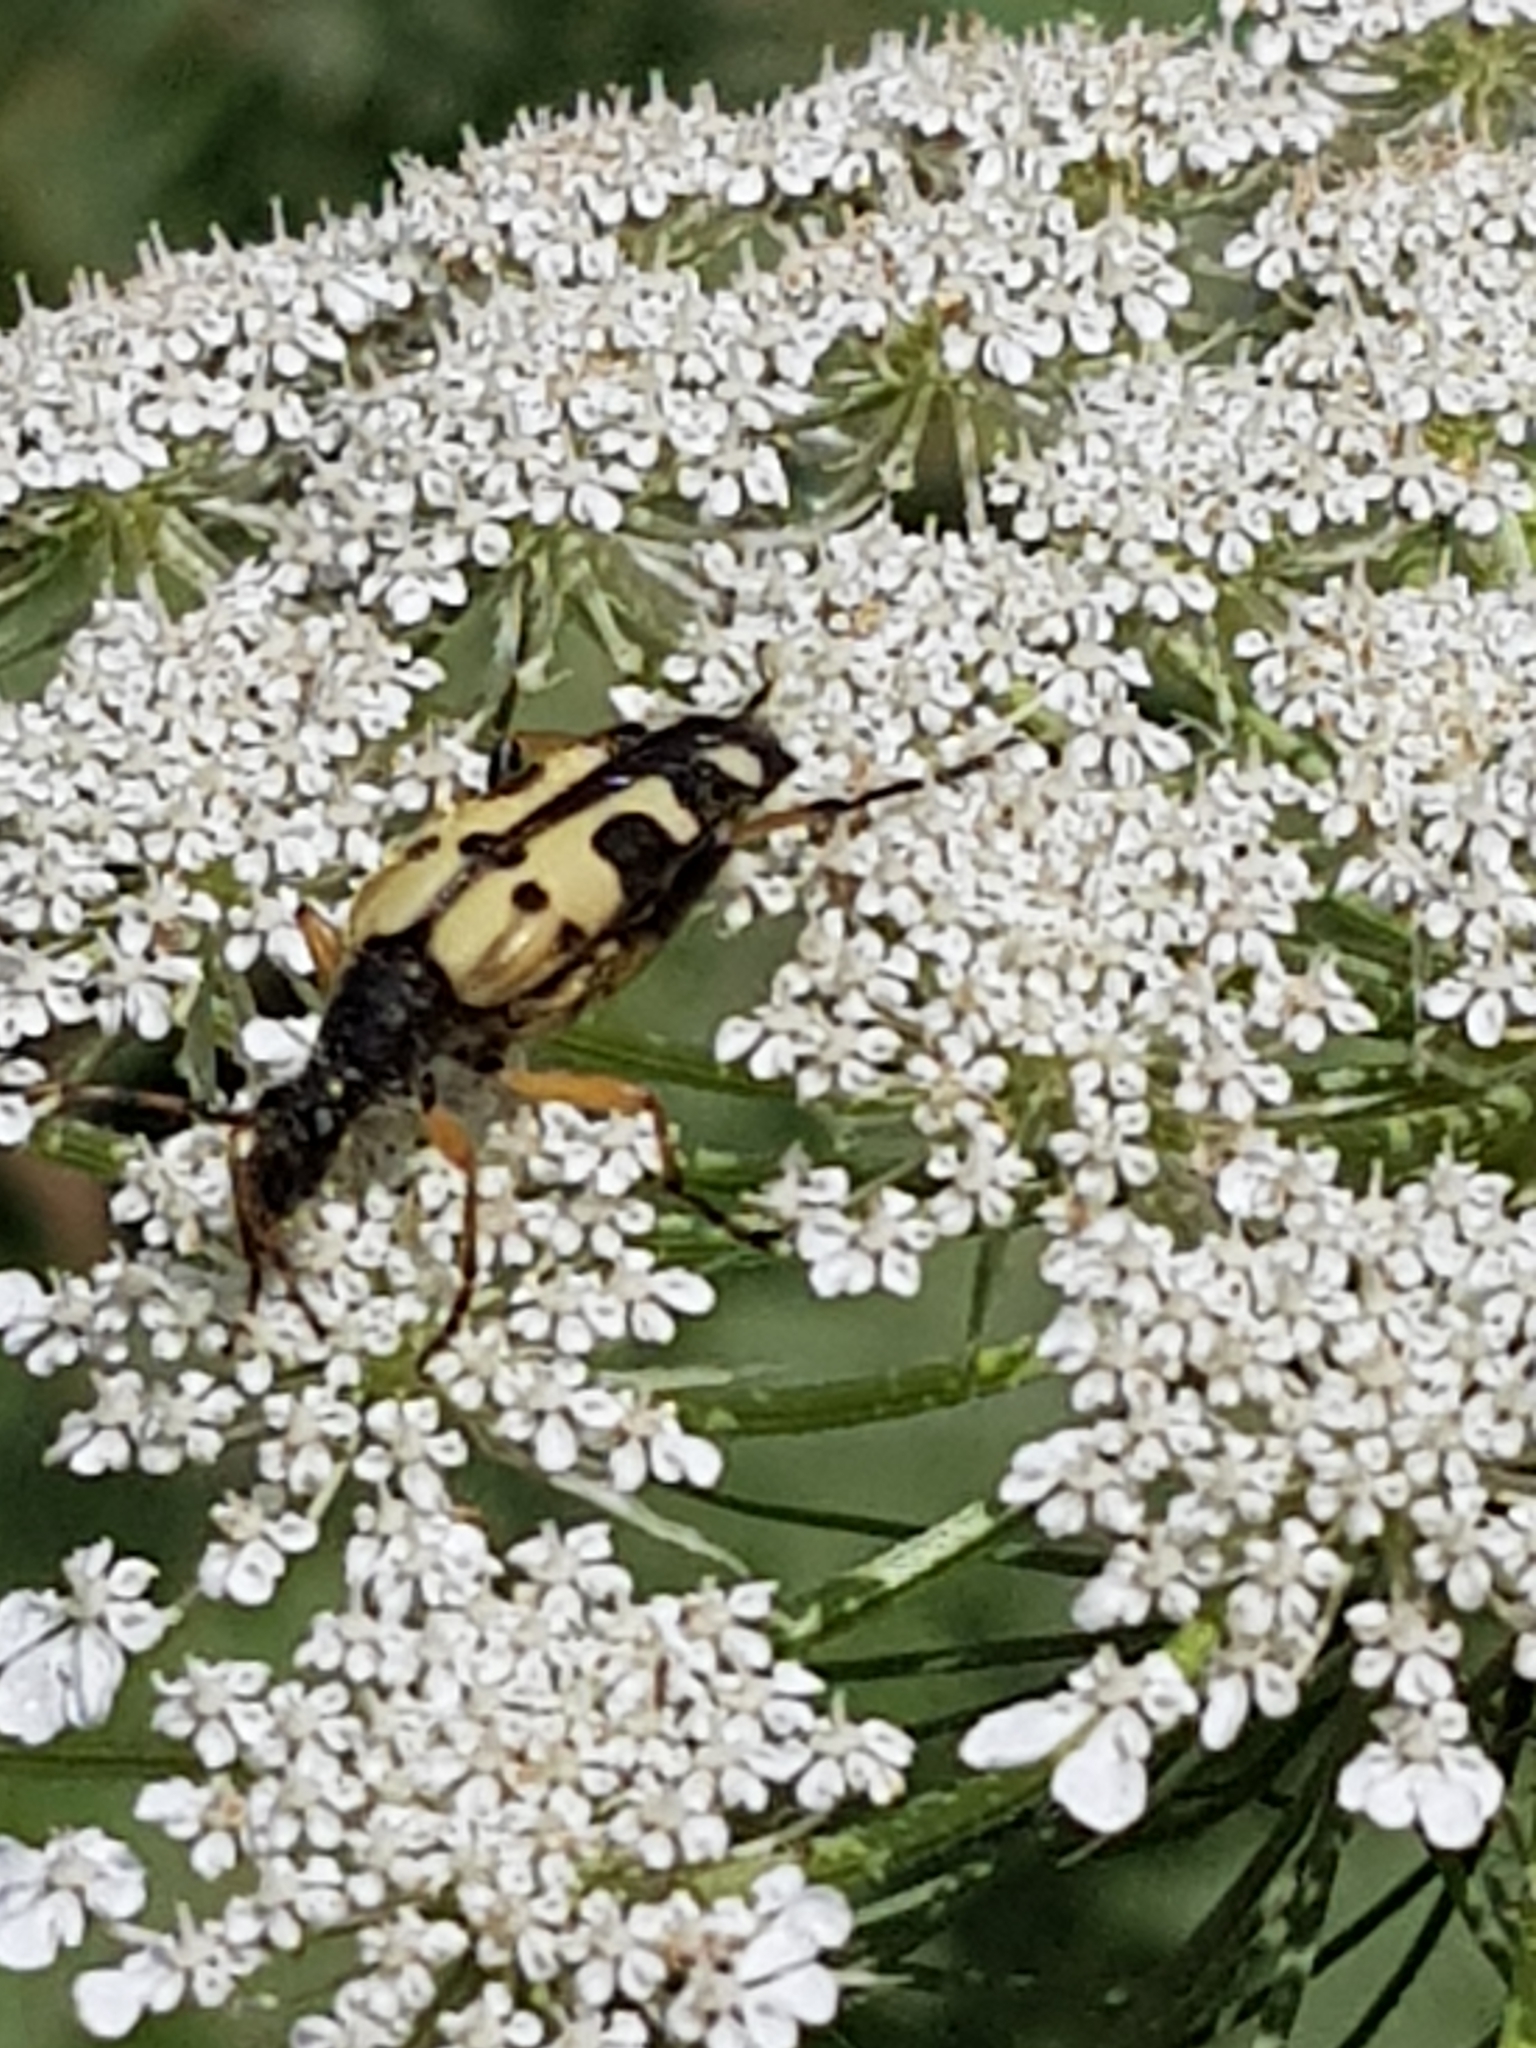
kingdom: Animalia
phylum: Arthropoda
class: Insecta
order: Coleoptera
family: Cerambycidae
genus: Rutpela
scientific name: Rutpela maculata
